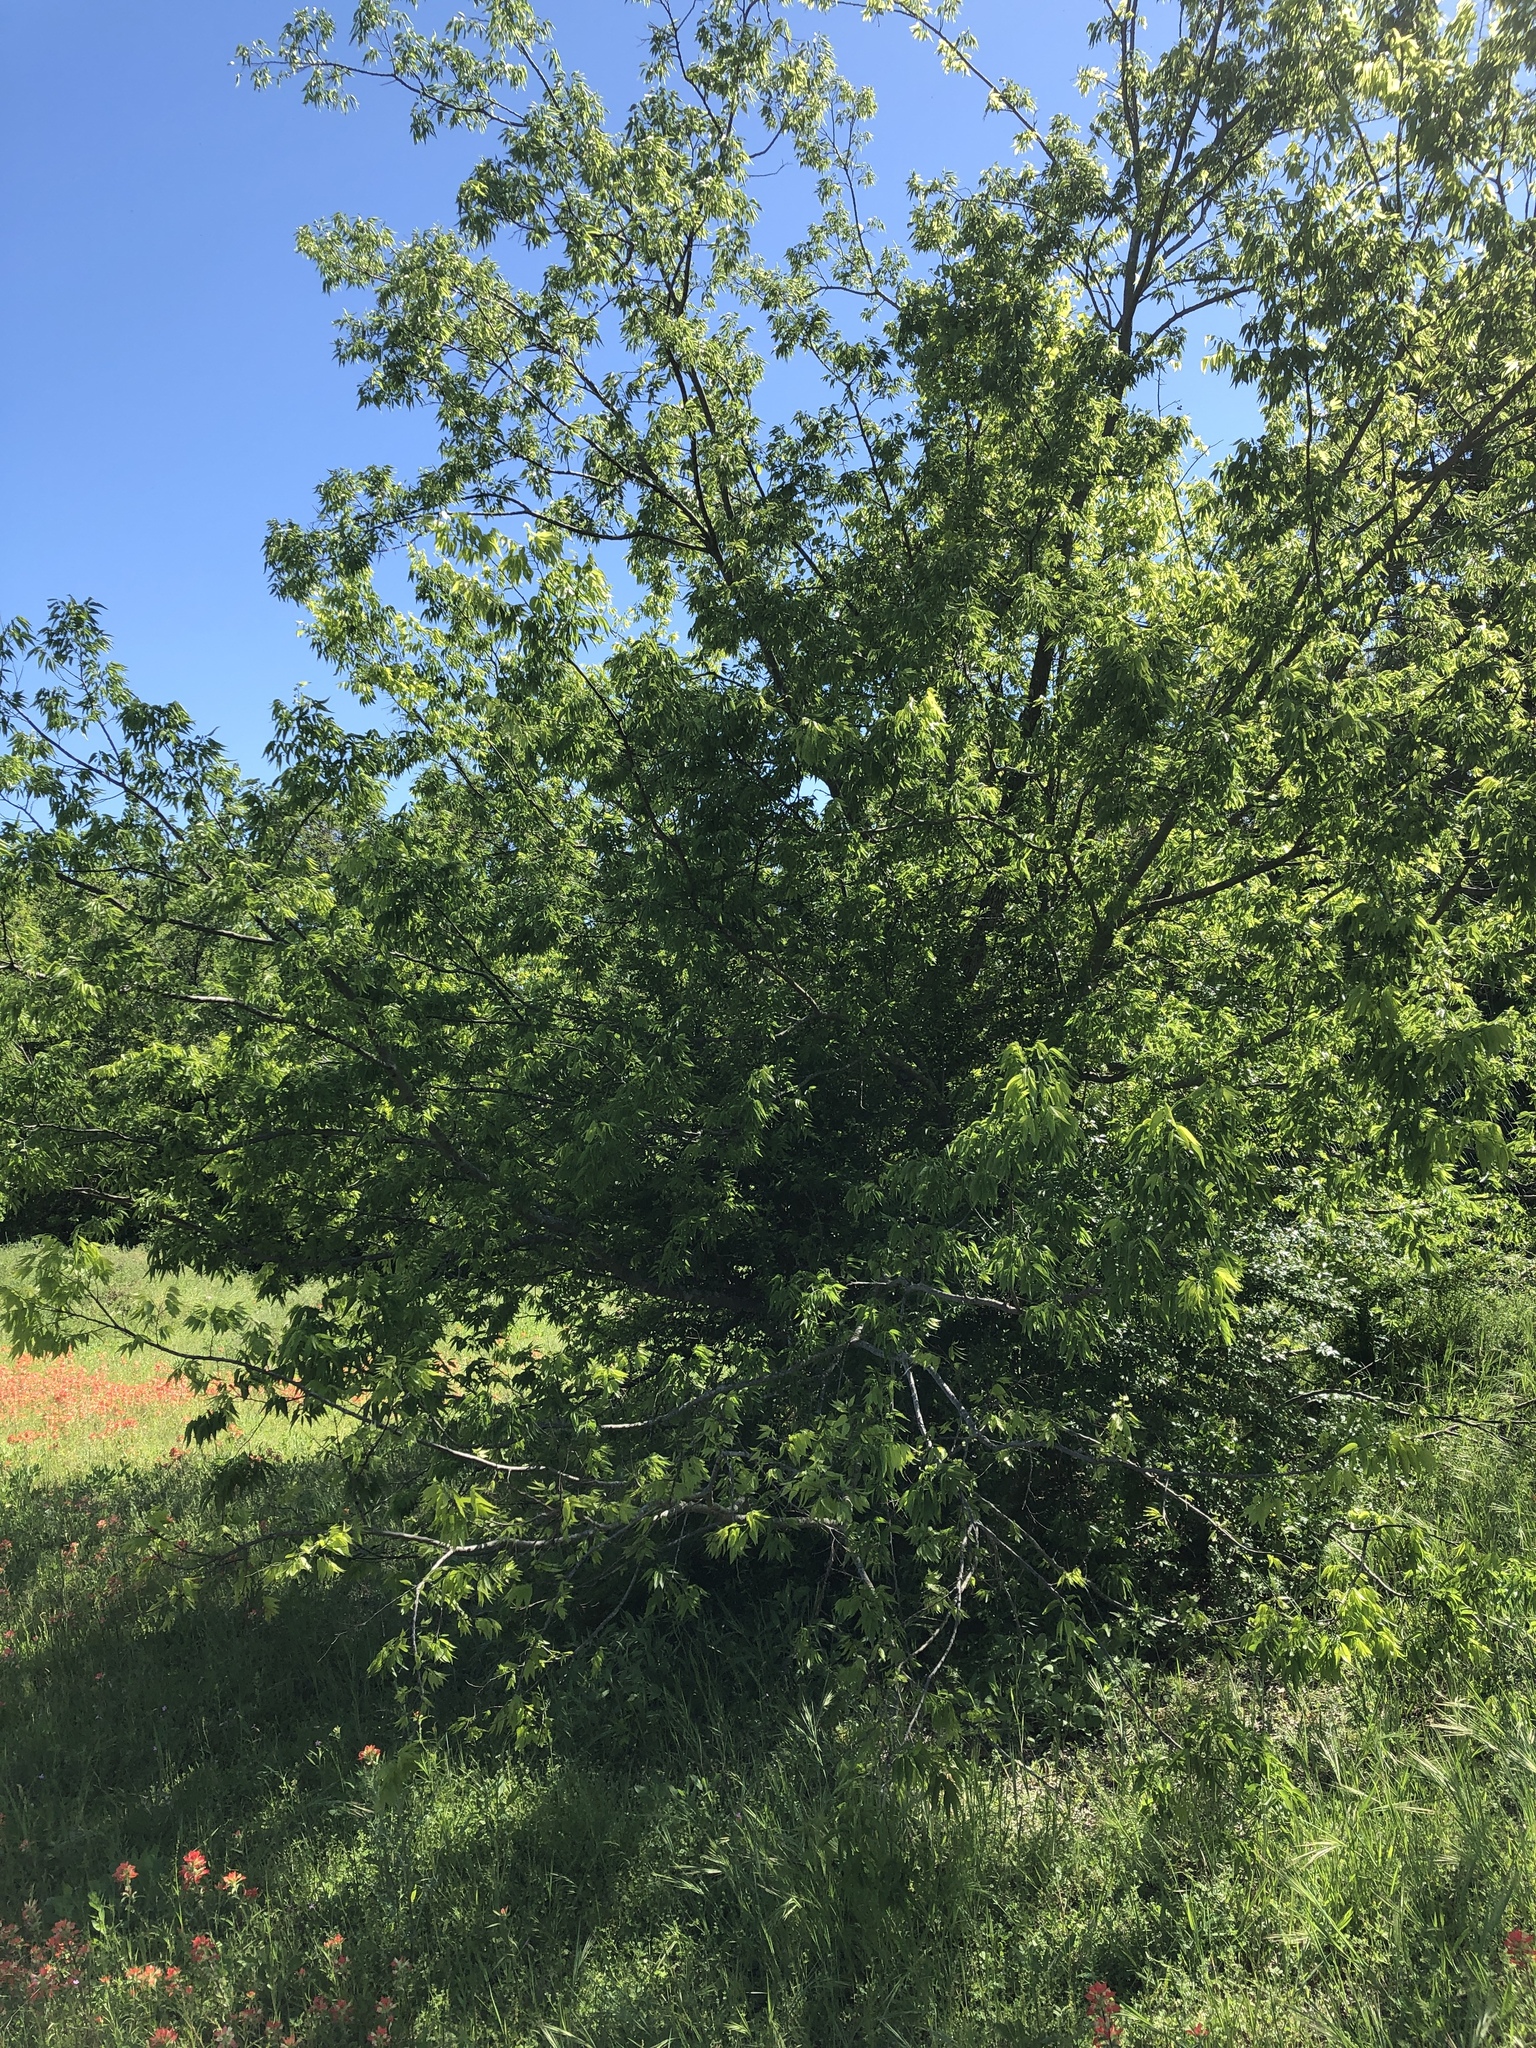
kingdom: Plantae
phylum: Tracheophyta
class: Magnoliopsida
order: Rosales
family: Cannabaceae
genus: Celtis
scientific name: Celtis laevigata
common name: Sugarberry
